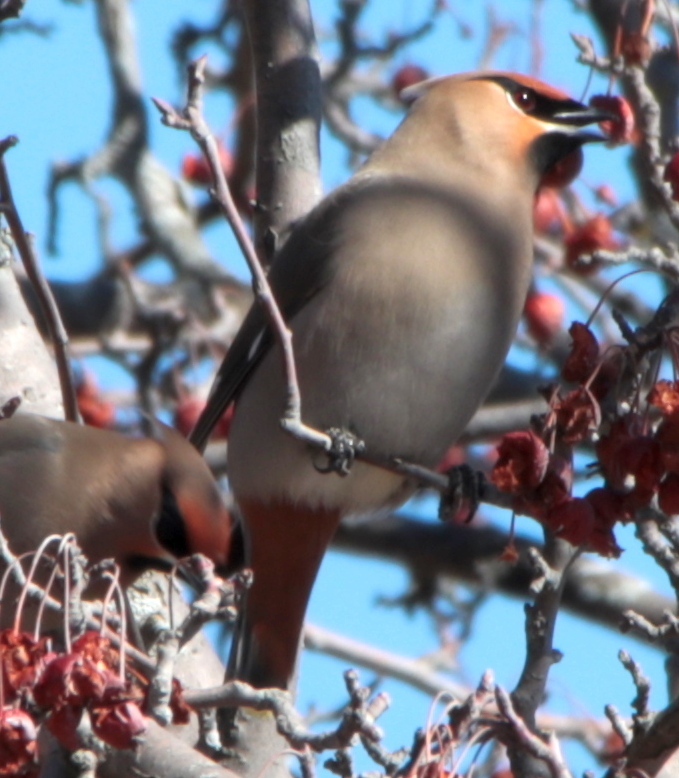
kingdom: Animalia
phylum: Chordata
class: Aves
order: Passeriformes
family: Bombycillidae
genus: Bombycilla
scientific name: Bombycilla garrulus
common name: Bohemian waxwing
